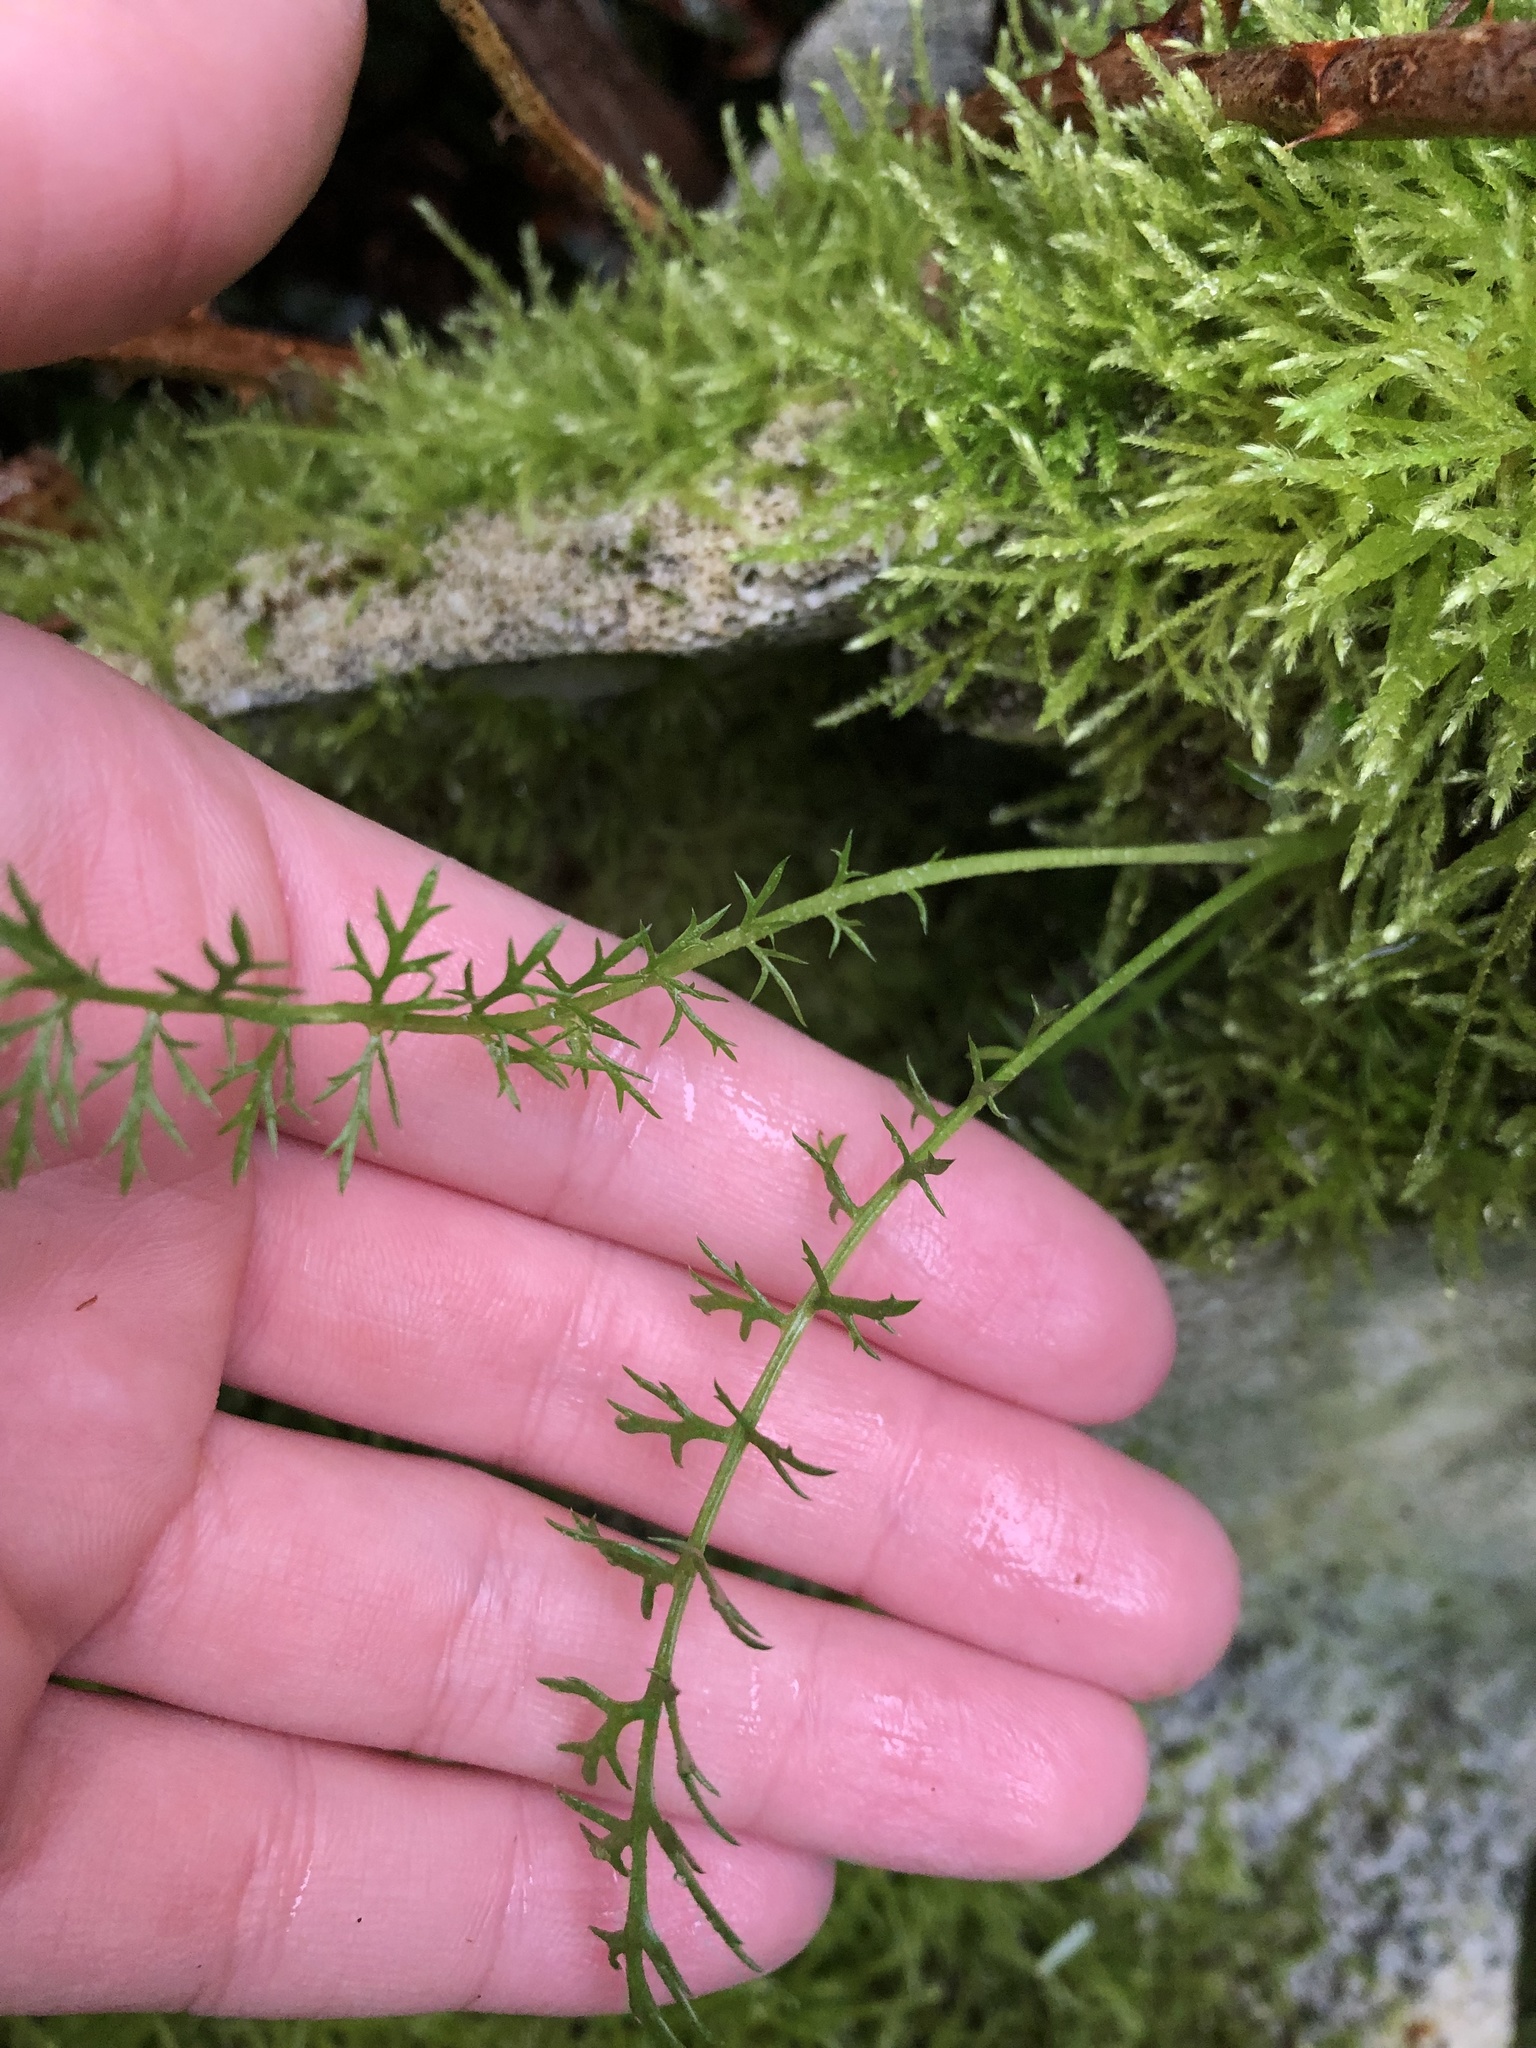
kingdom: Plantae
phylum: Tracheophyta
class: Magnoliopsida
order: Asterales
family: Asteraceae
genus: Achillea
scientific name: Achillea millefolium
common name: Yarrow
